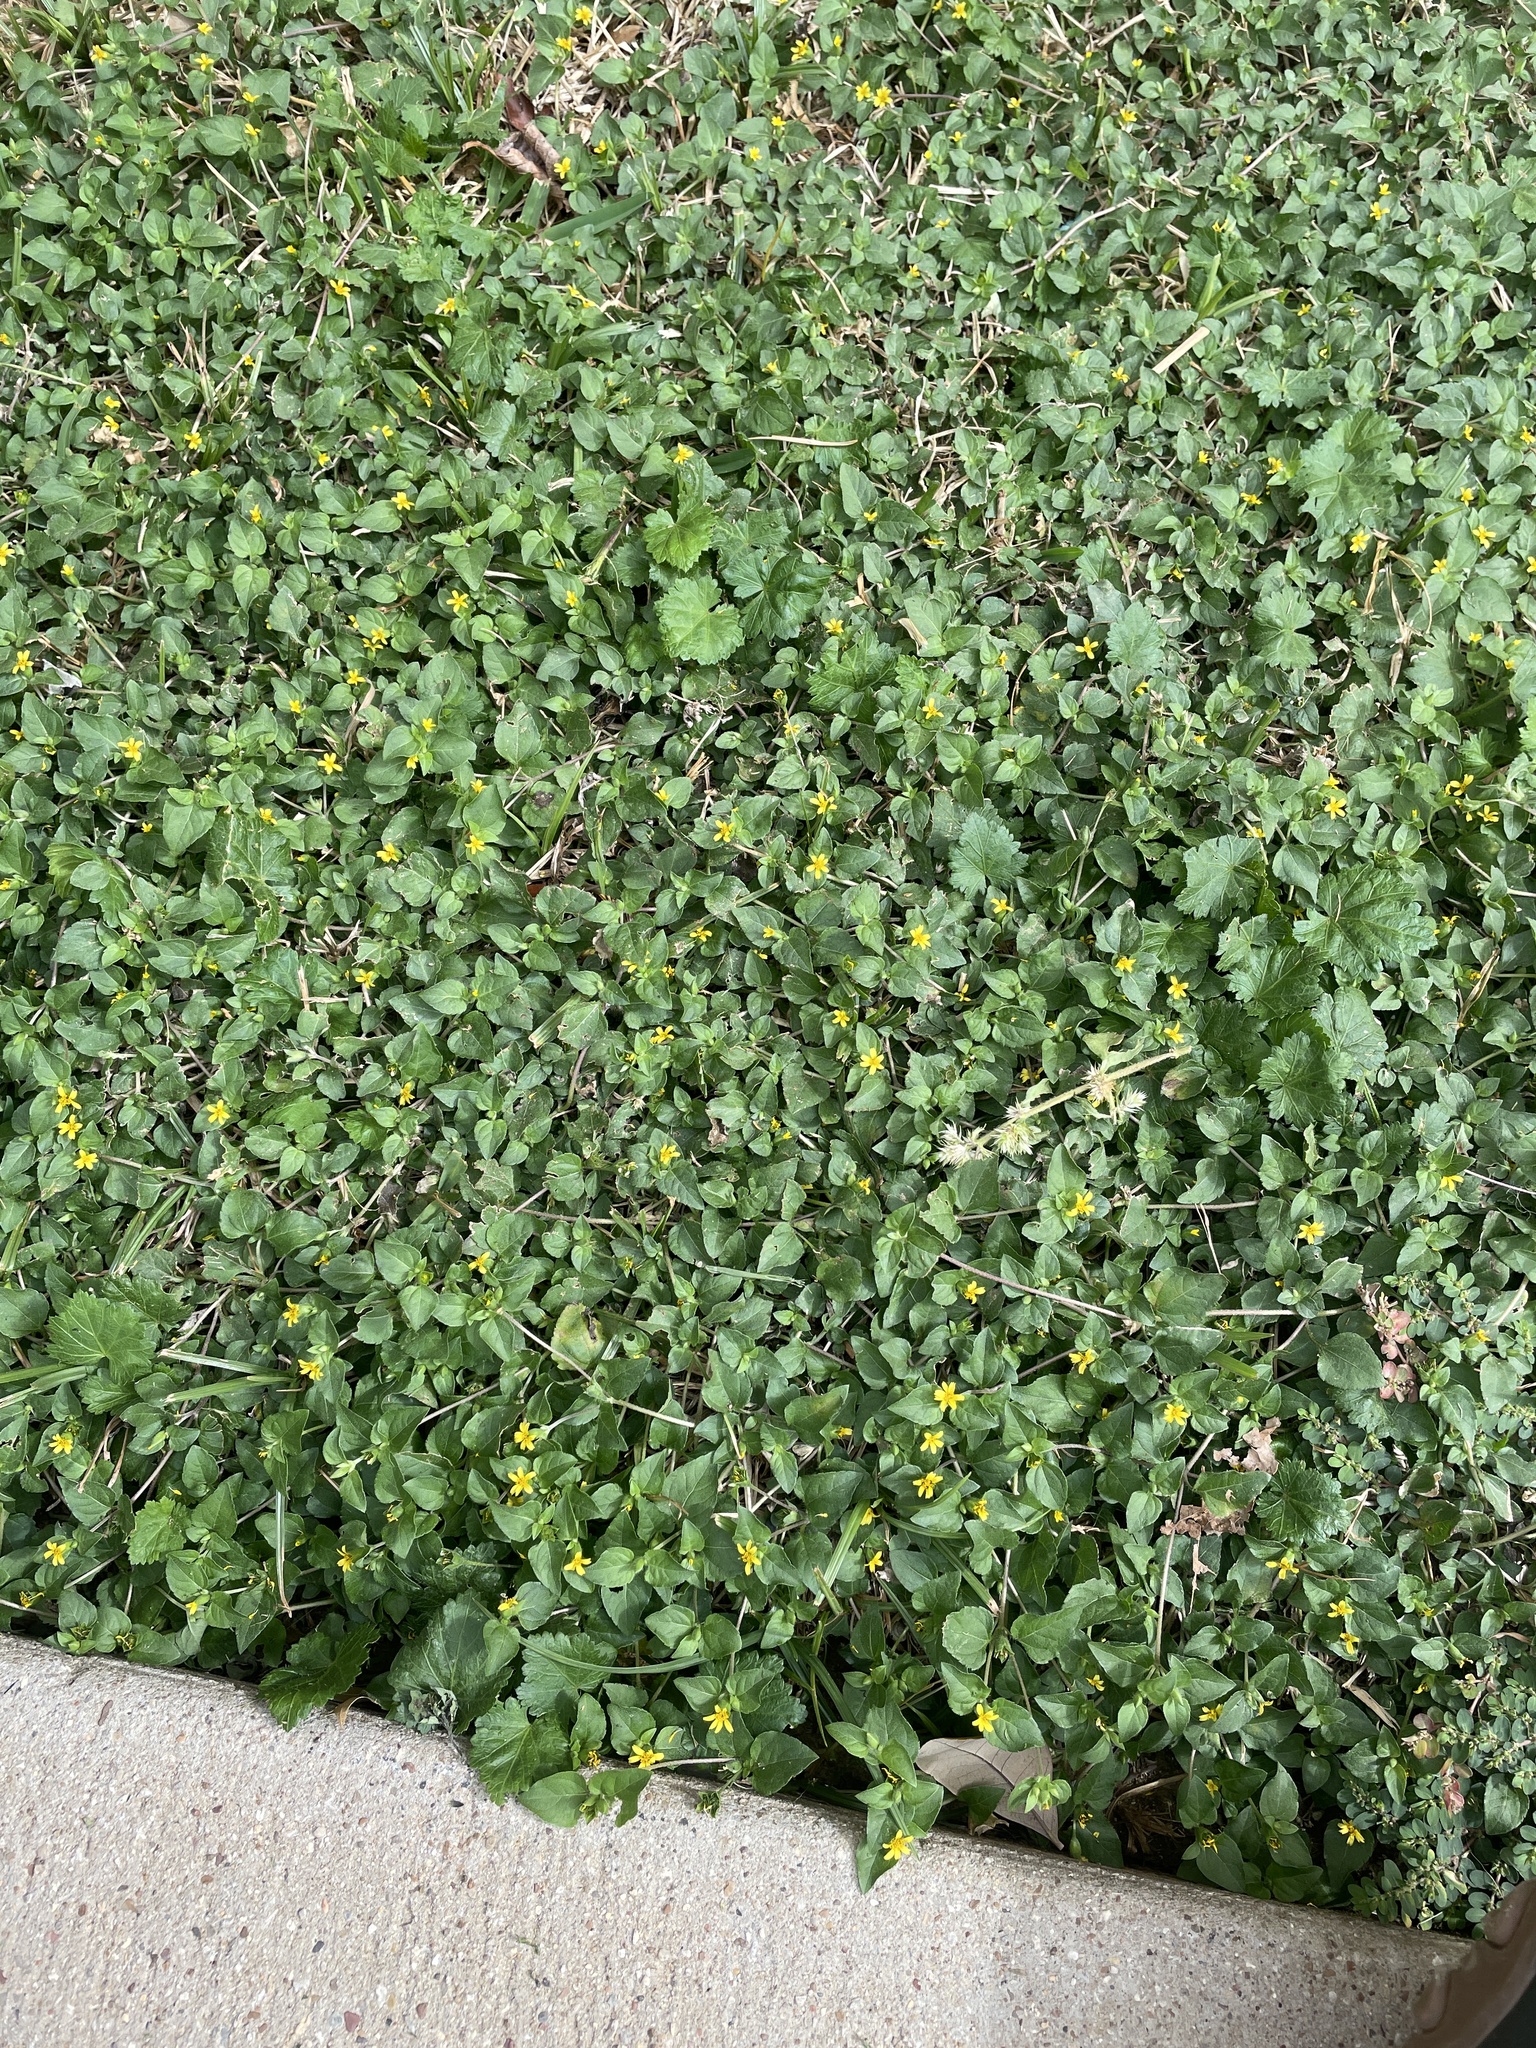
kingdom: Plantae
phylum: Tracheophyta
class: Magnoliopsida
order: Asterales
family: Asteraceae
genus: Calyptocarpus
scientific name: Calyptocarpus vialis
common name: Straggler daisy
